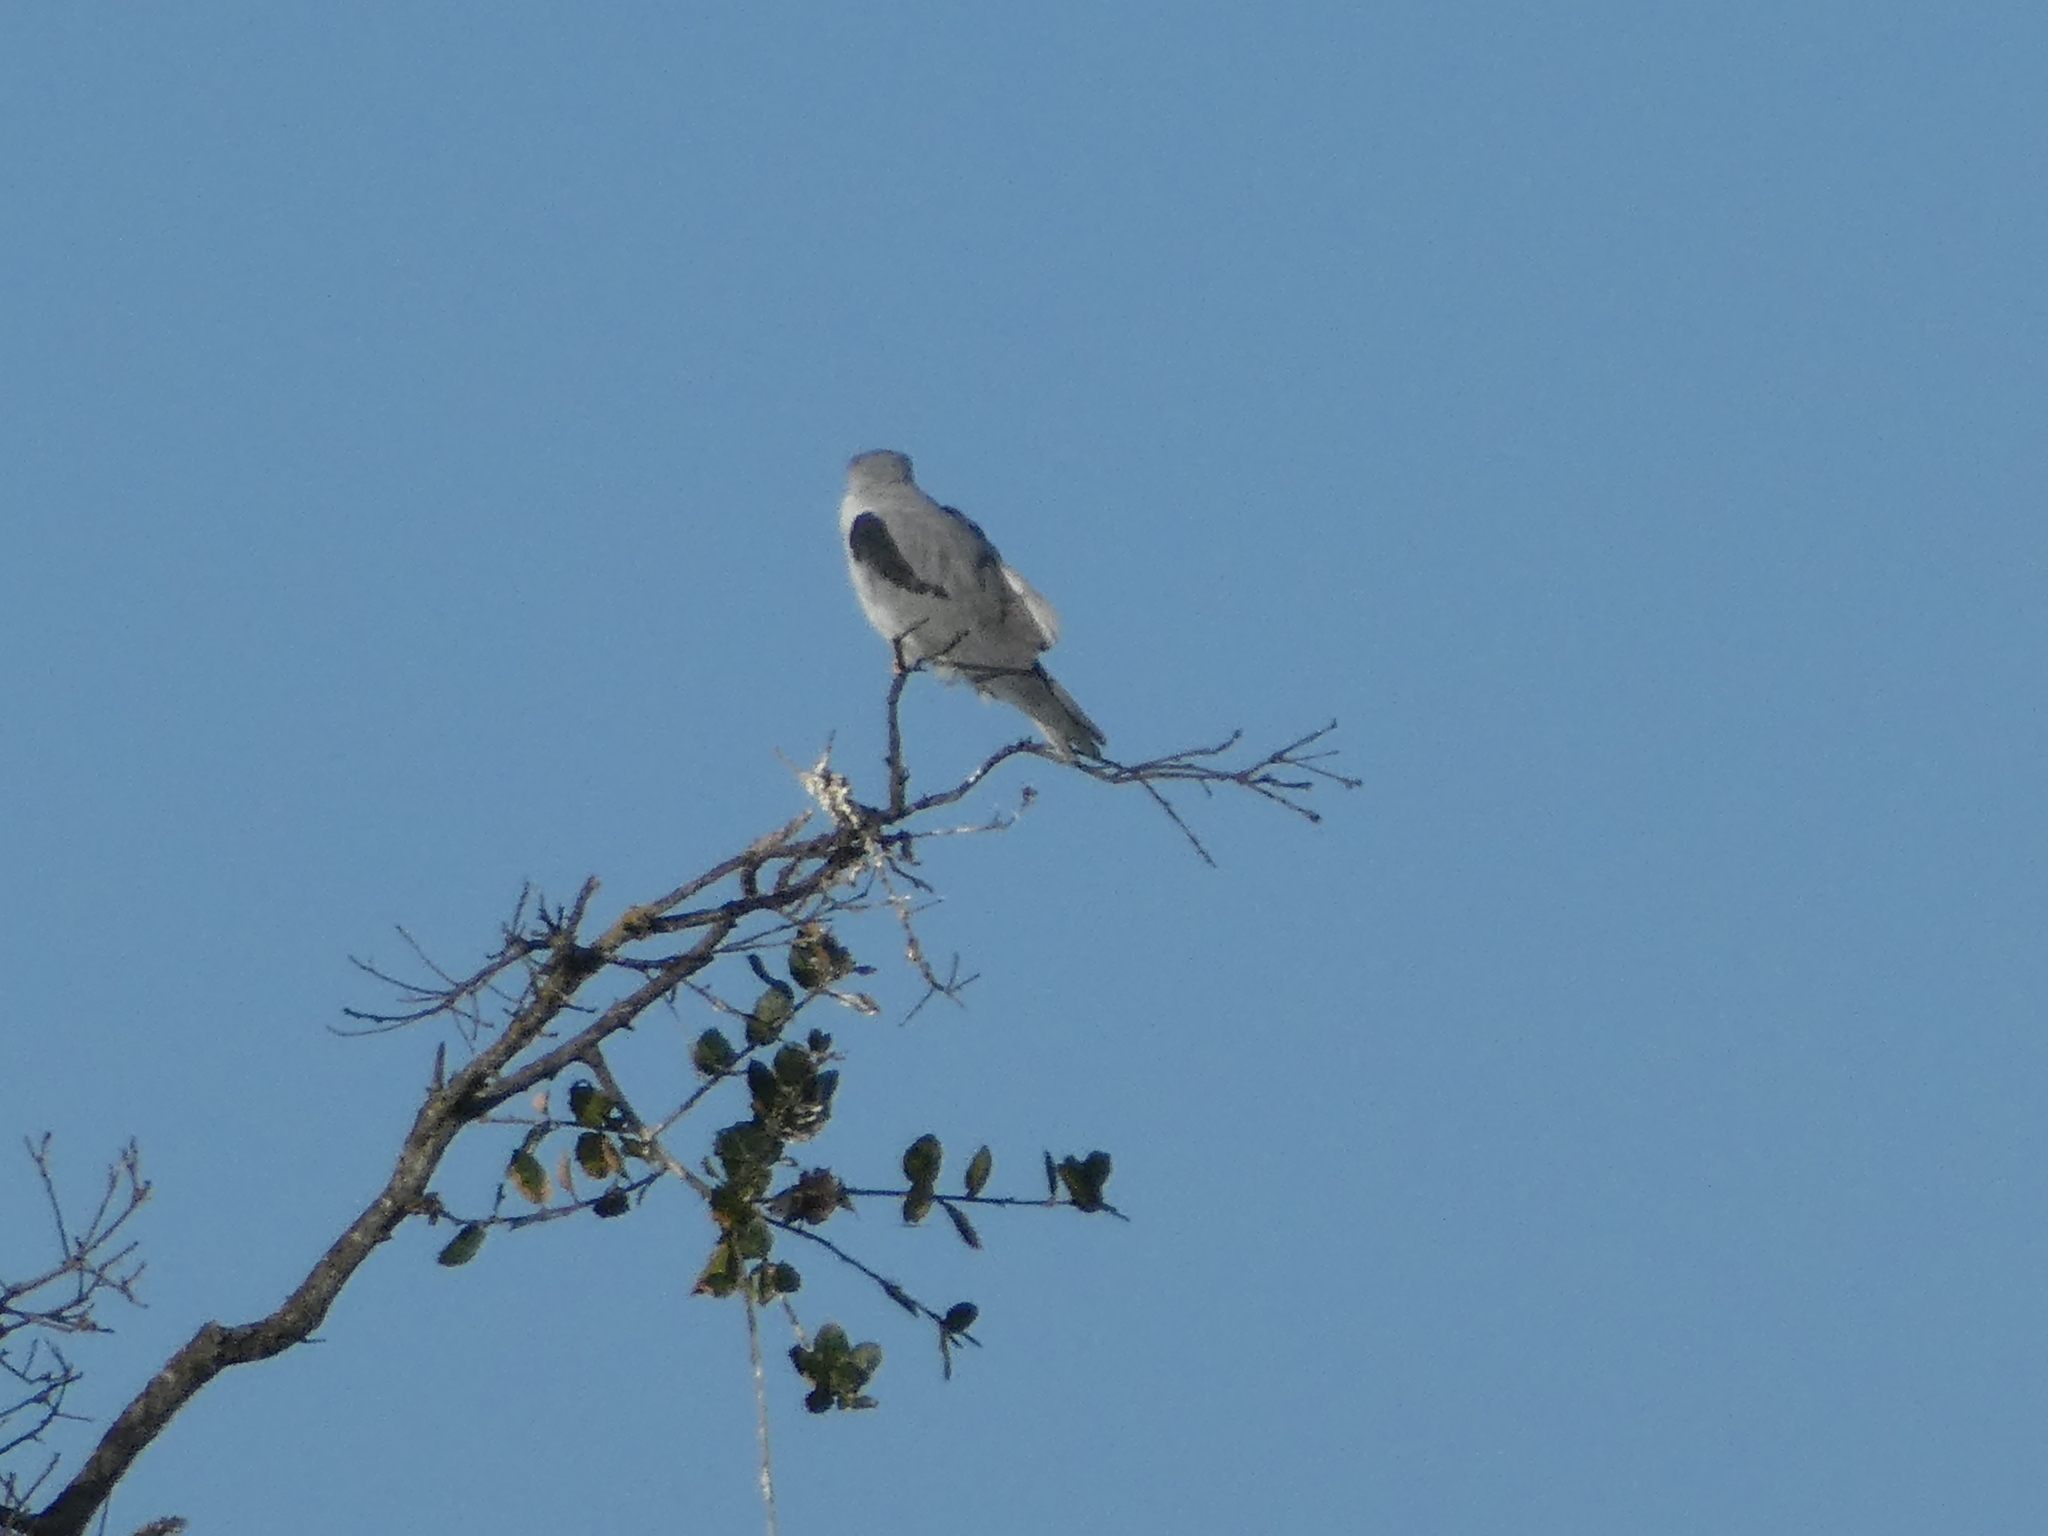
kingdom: Animalia
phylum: Chordata
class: Aves
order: Accipitriformes
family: Accipitridae
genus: Elanus
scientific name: Elanus leucurus
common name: White-tailed kite
